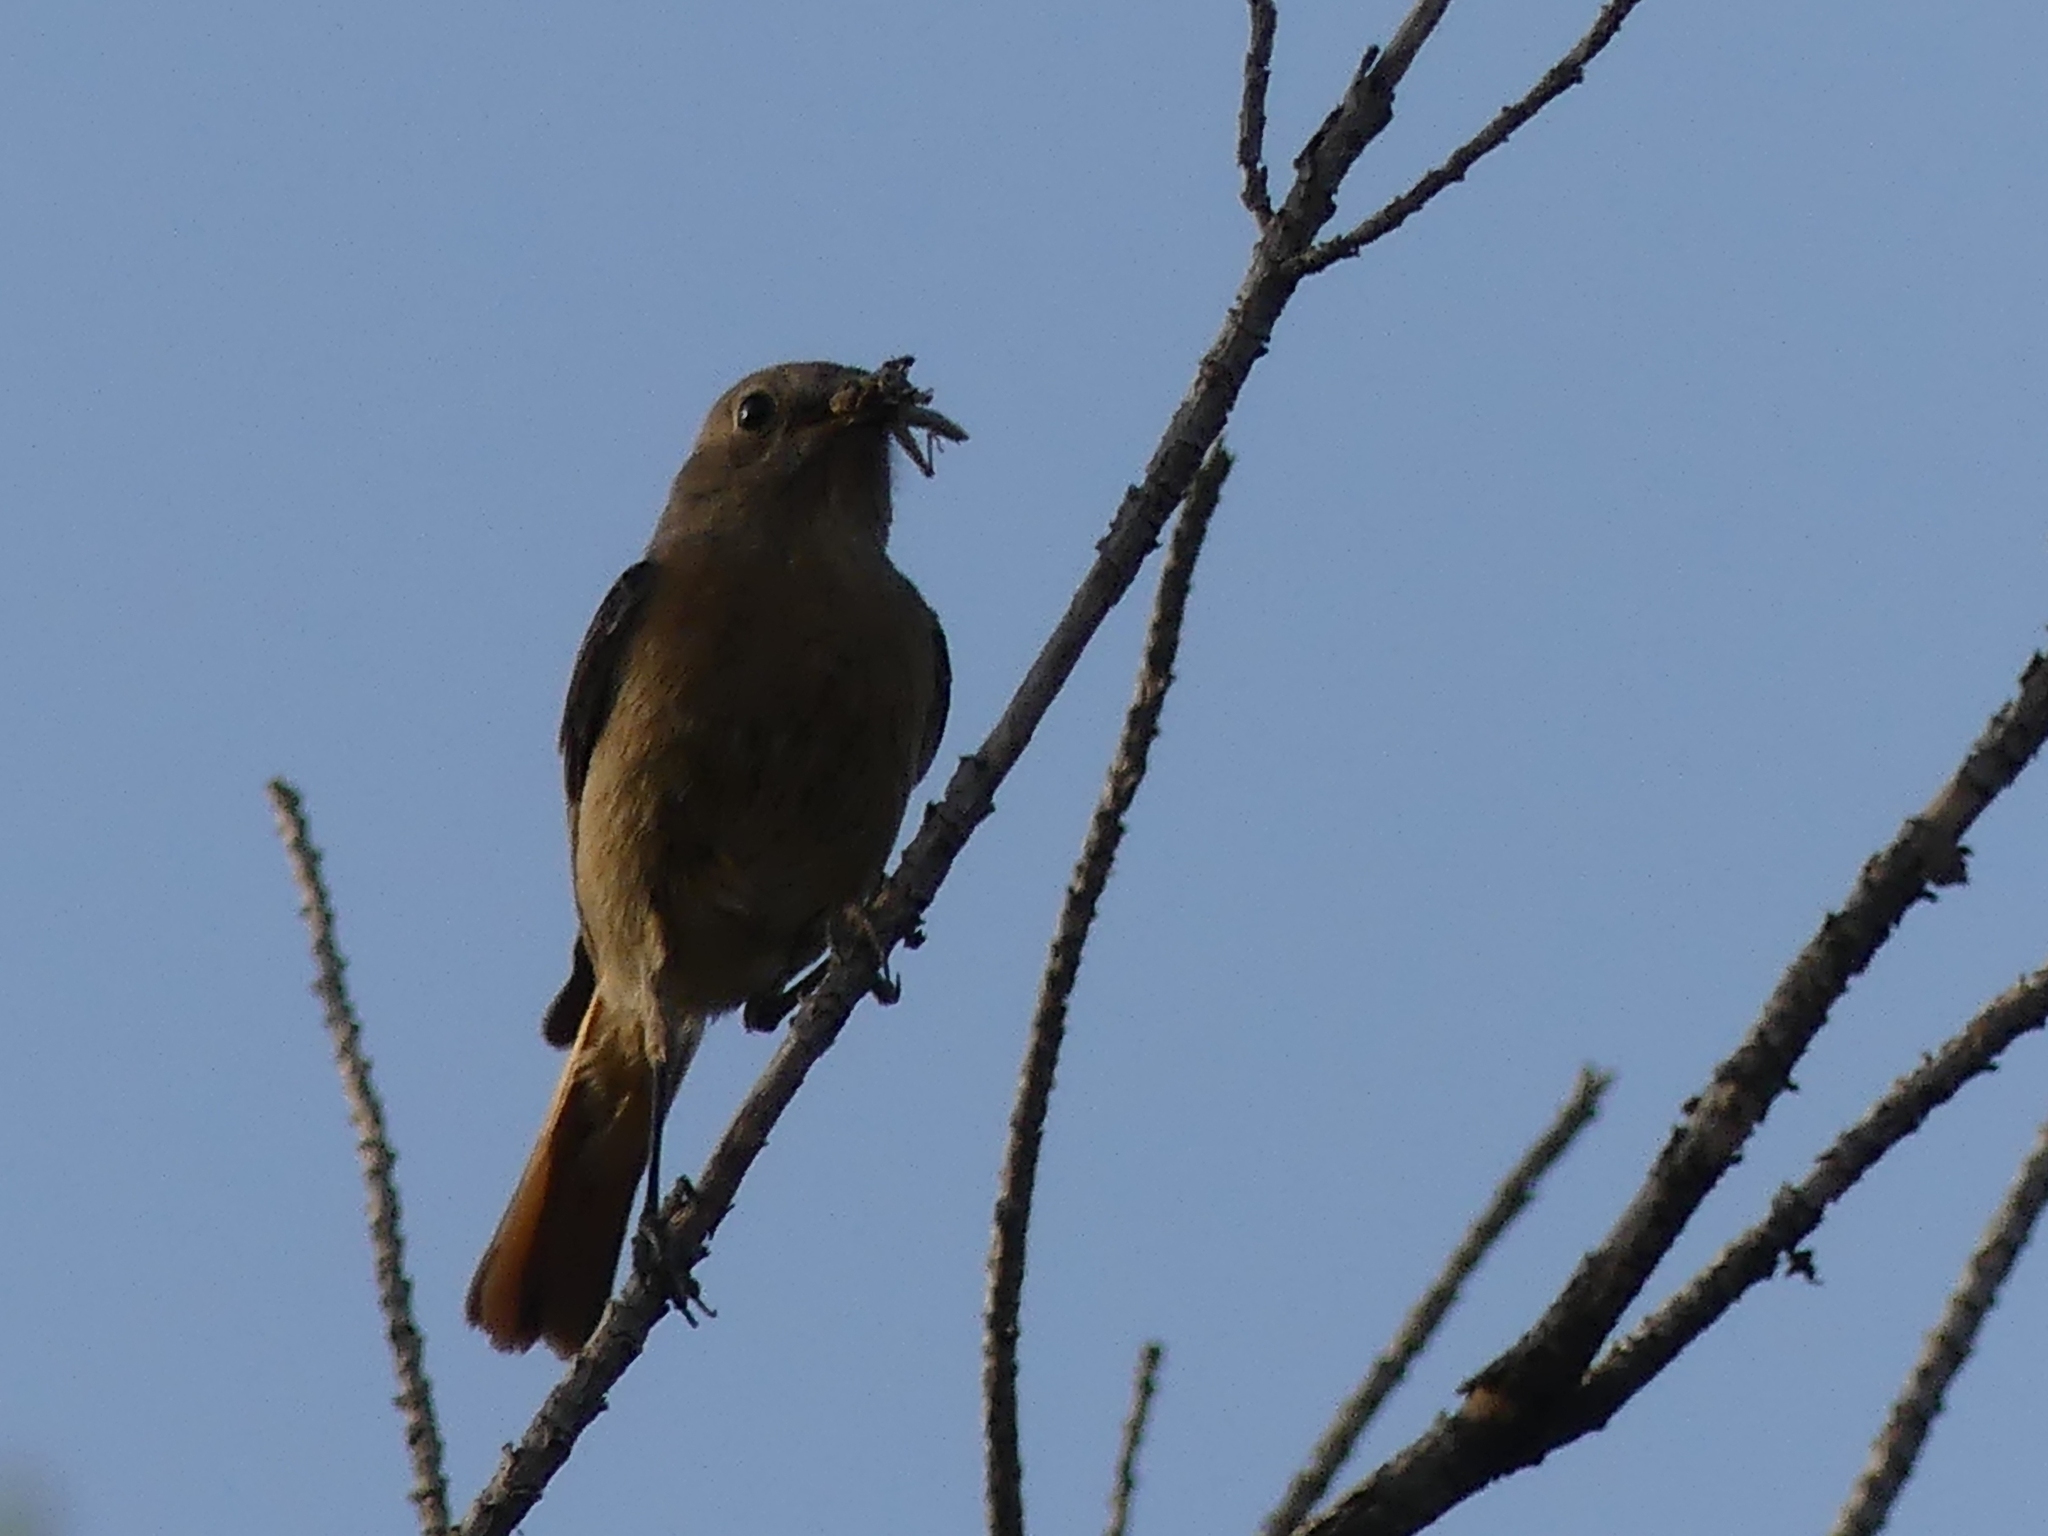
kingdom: Animalia
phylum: Chordata
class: Aves
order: Passeriformes
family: Muscicapidae
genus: Phoenicurus
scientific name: Phoenicurus moussieri
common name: Moussier's redstart
